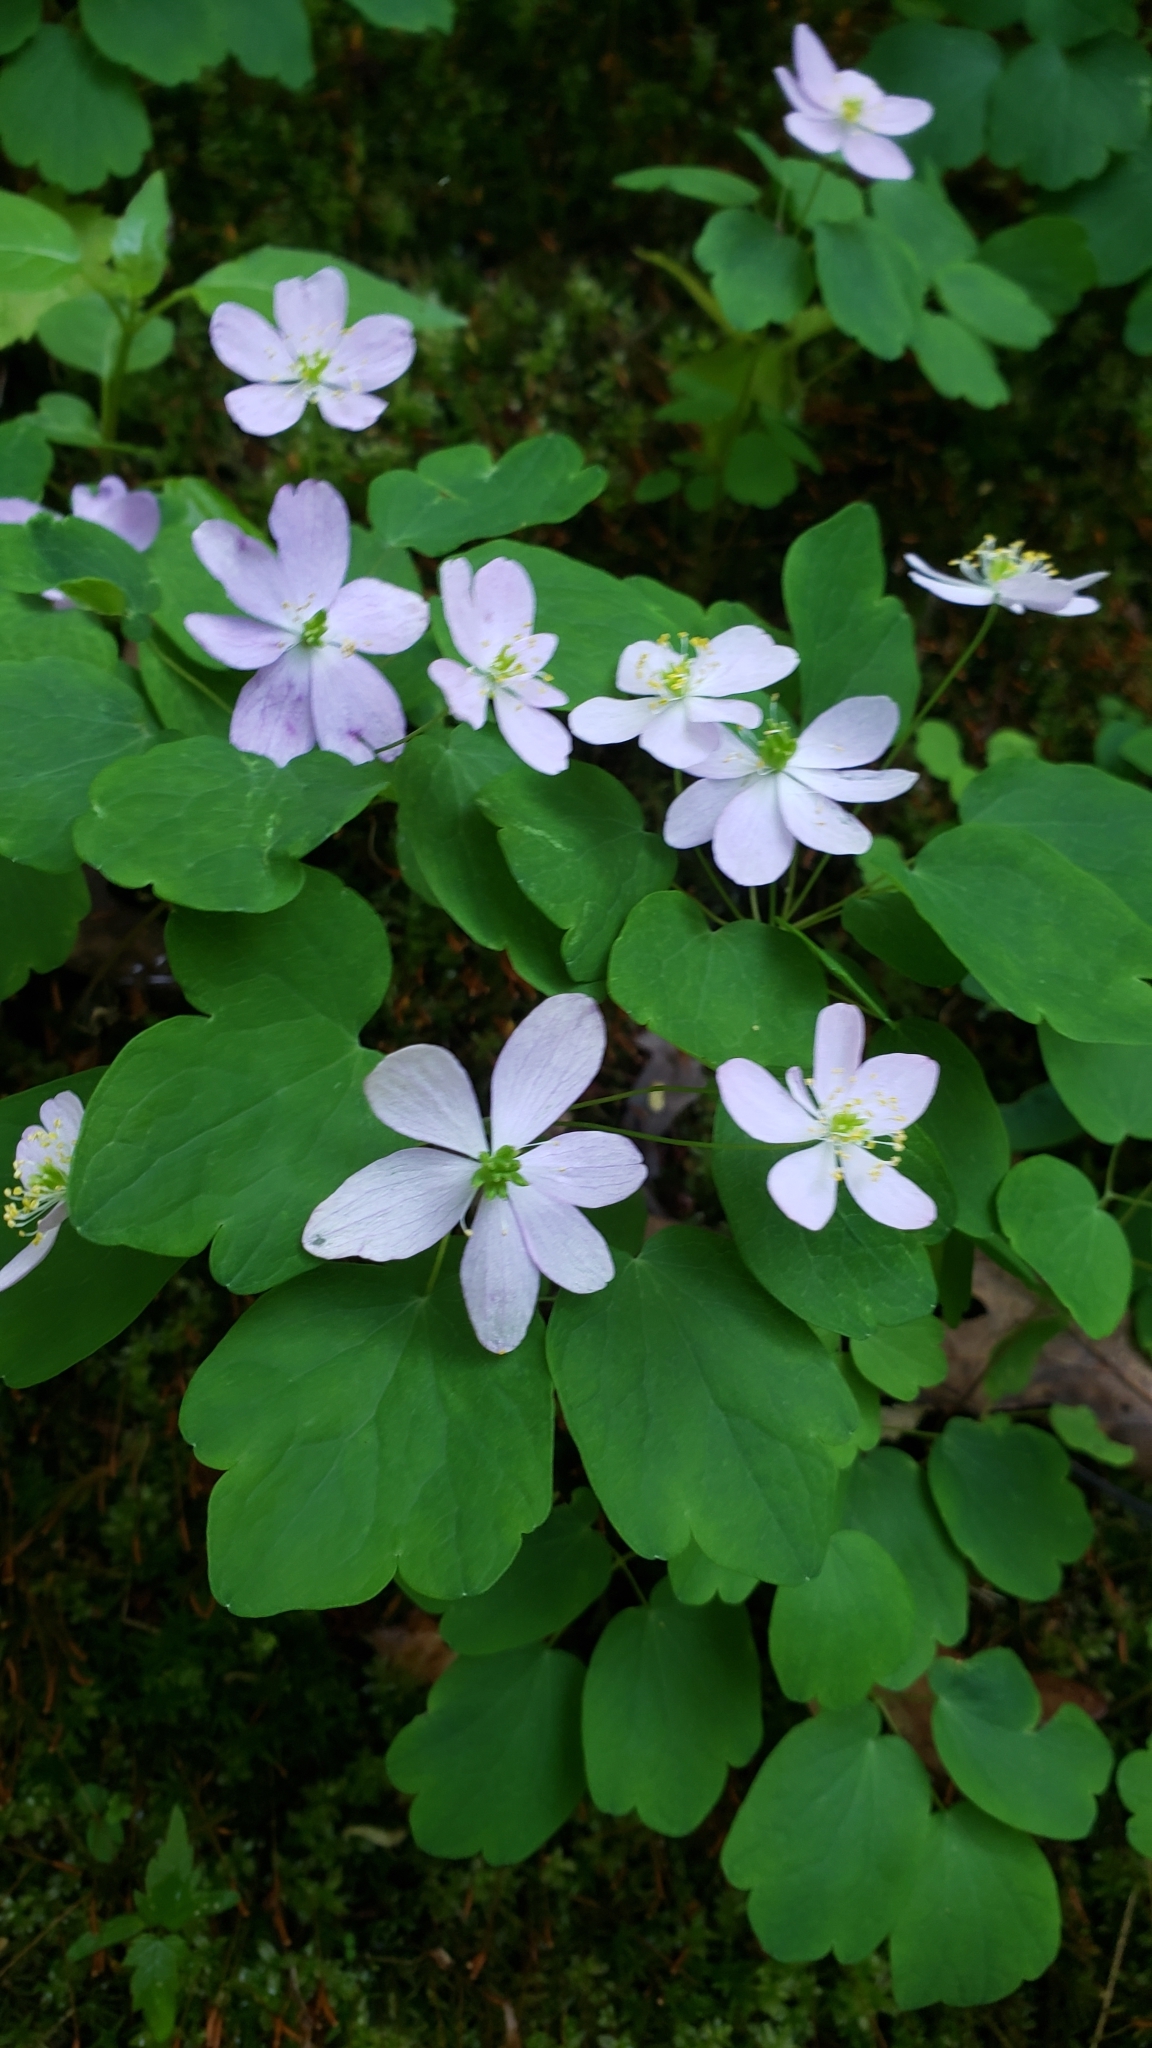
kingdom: Plantae
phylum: Tracheophyta
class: Magnoliopsida
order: Ranunculales
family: Ranunculaceae
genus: Thalictrum
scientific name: Thalictrum thalictroides
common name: Rue-anemone
